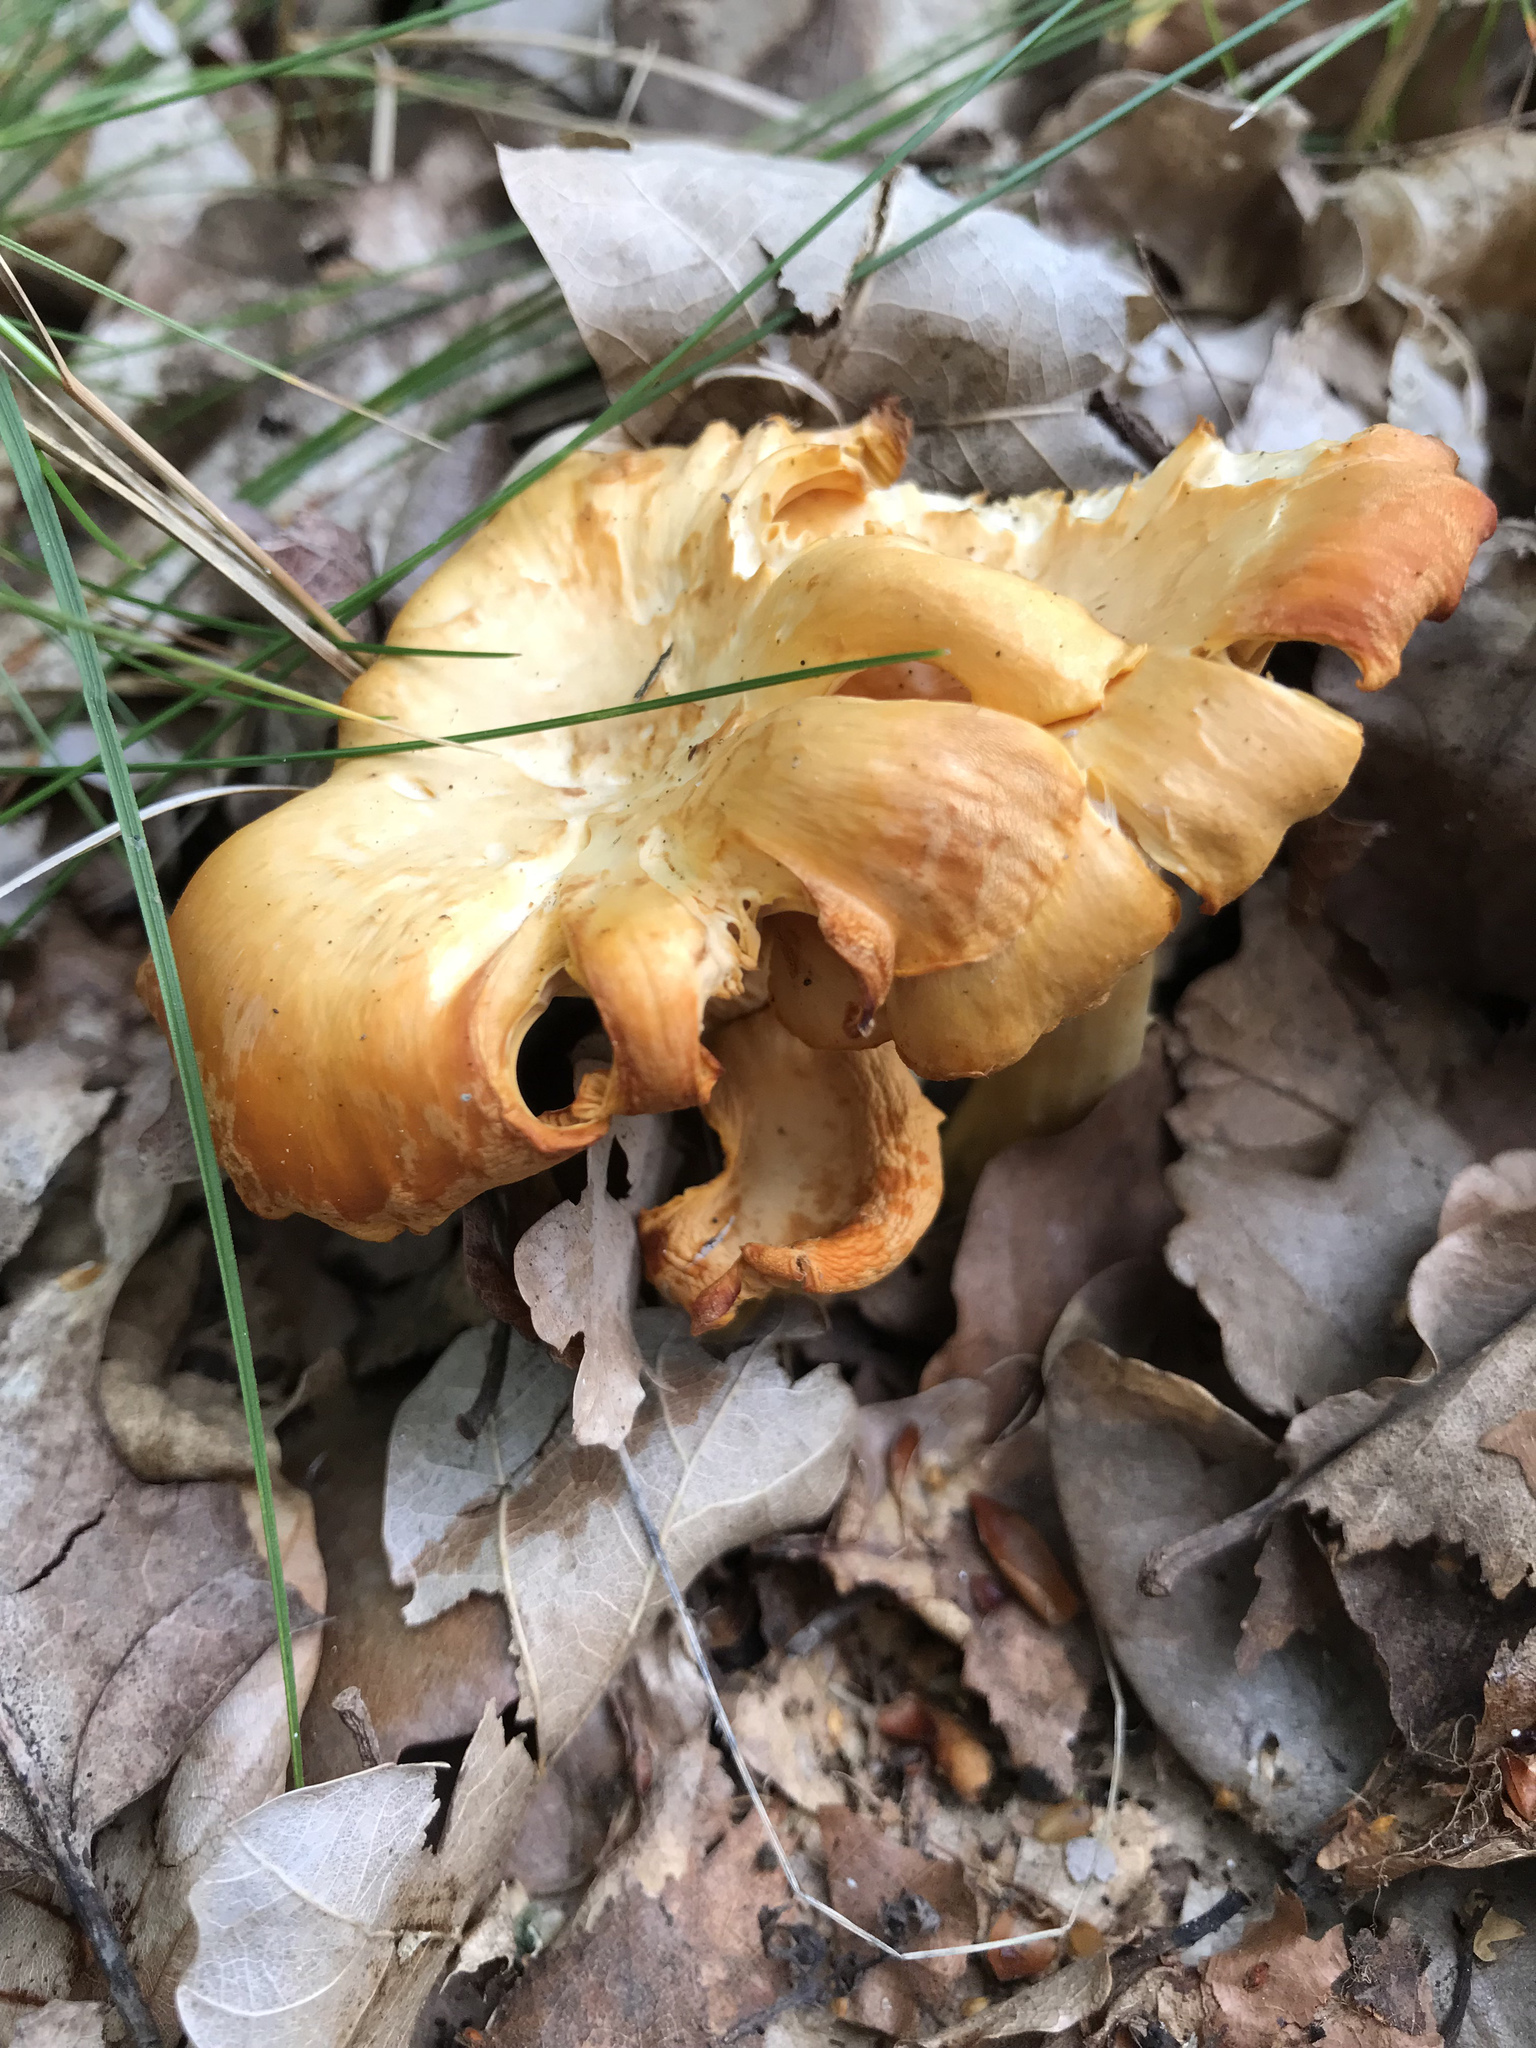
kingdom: Fungi
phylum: Basidiomycota
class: Agaricomycetes
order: Cantharellales
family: Hydnaceae
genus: Cantharellus
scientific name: Cantharellus cibarius
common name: Chanterelle
